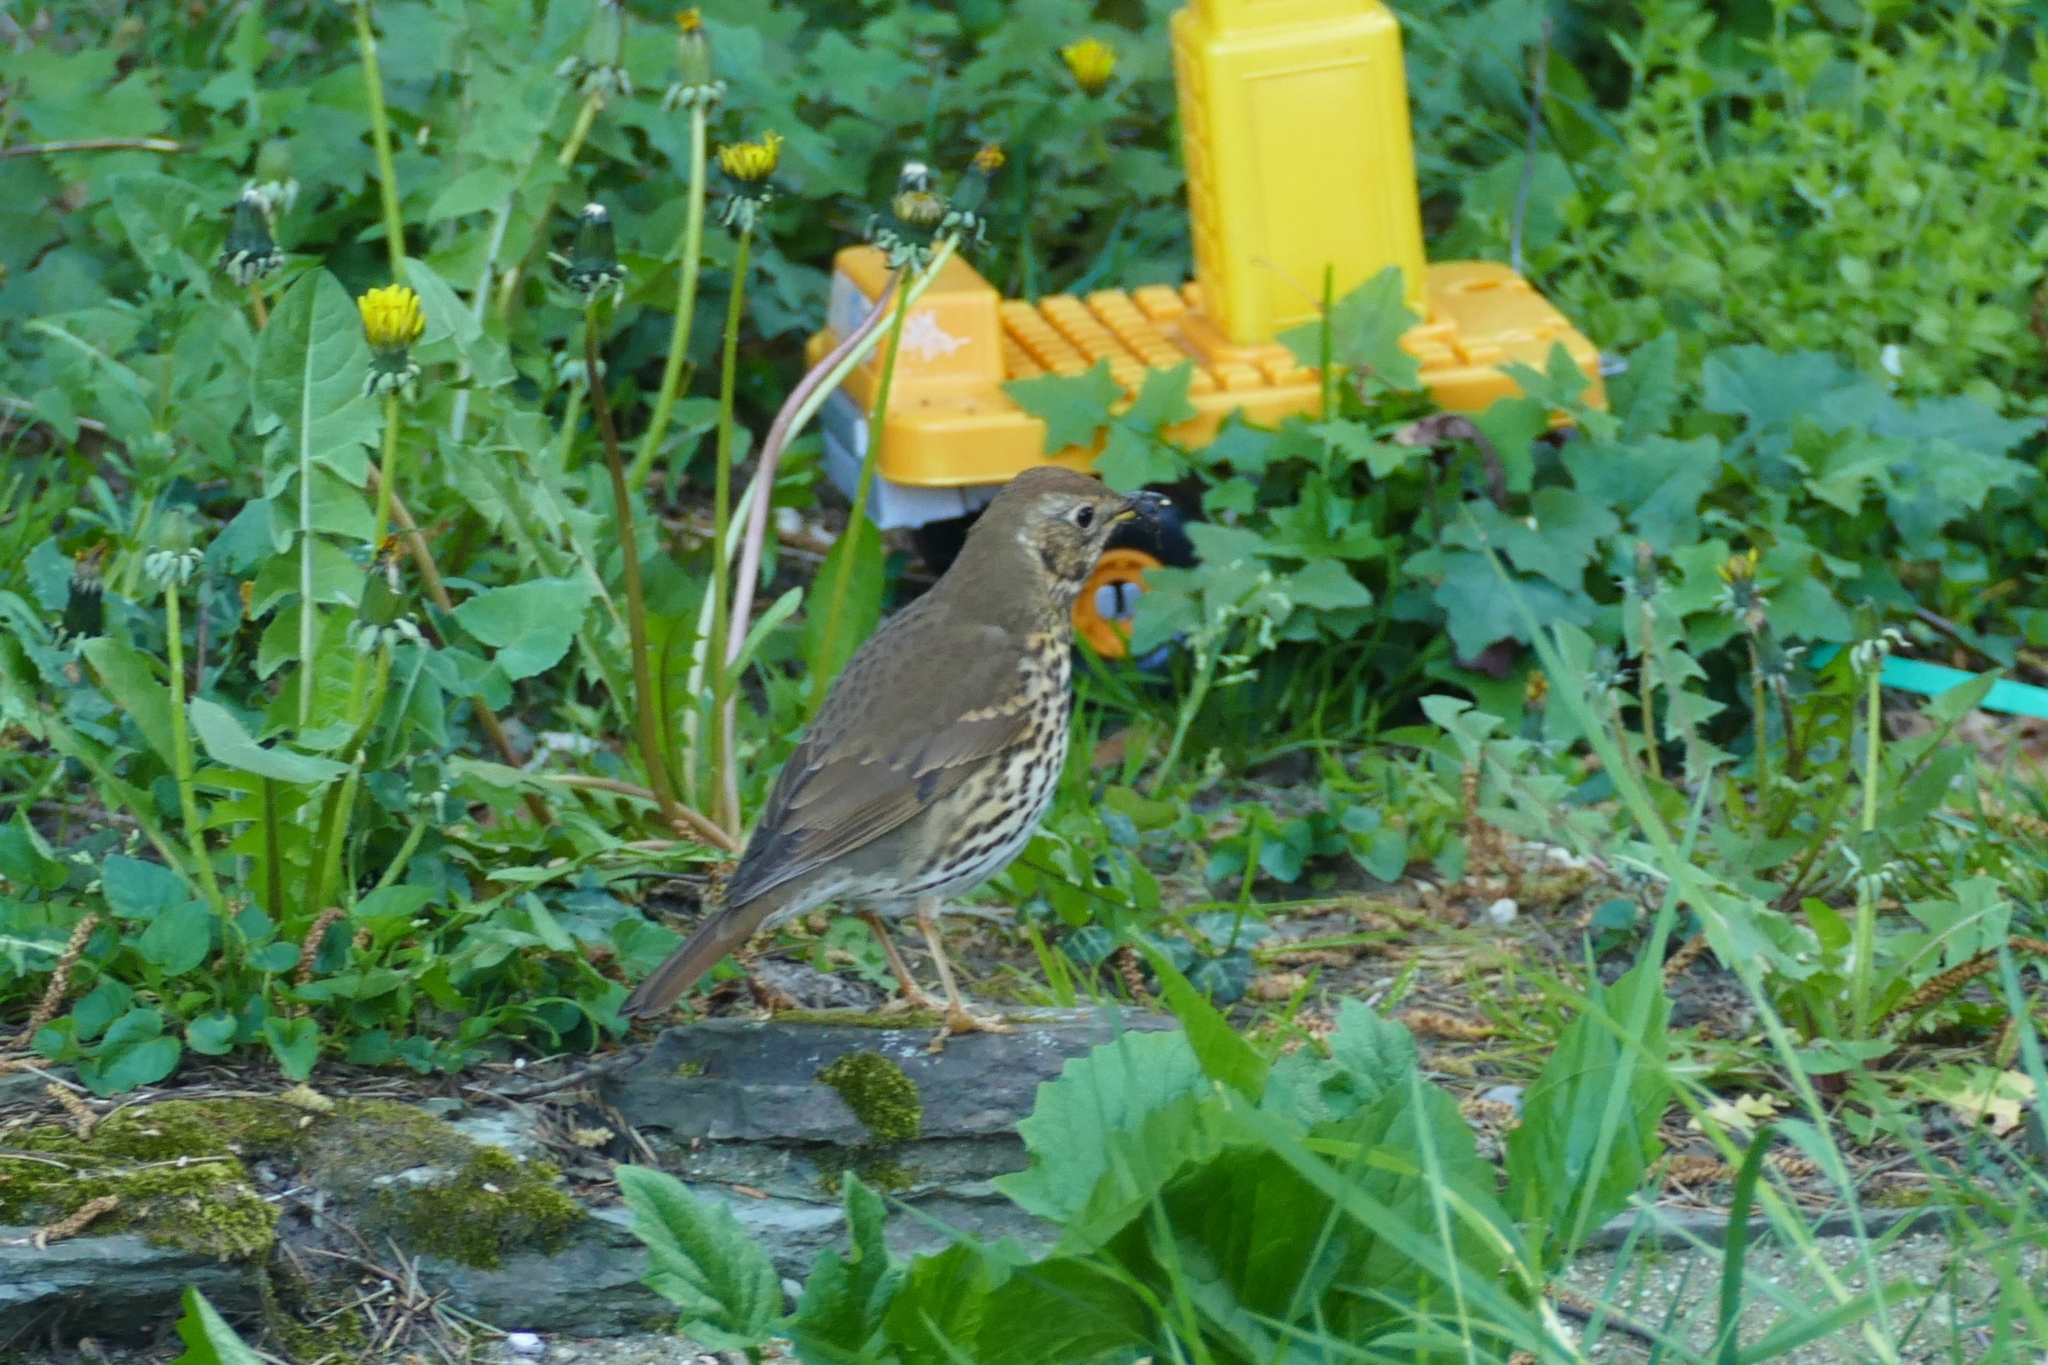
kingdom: Animalia
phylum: Chordata
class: Aves
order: Passeriformes
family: Turdidae
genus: Turdus
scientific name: Turdus philomelos
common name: Song thrush
